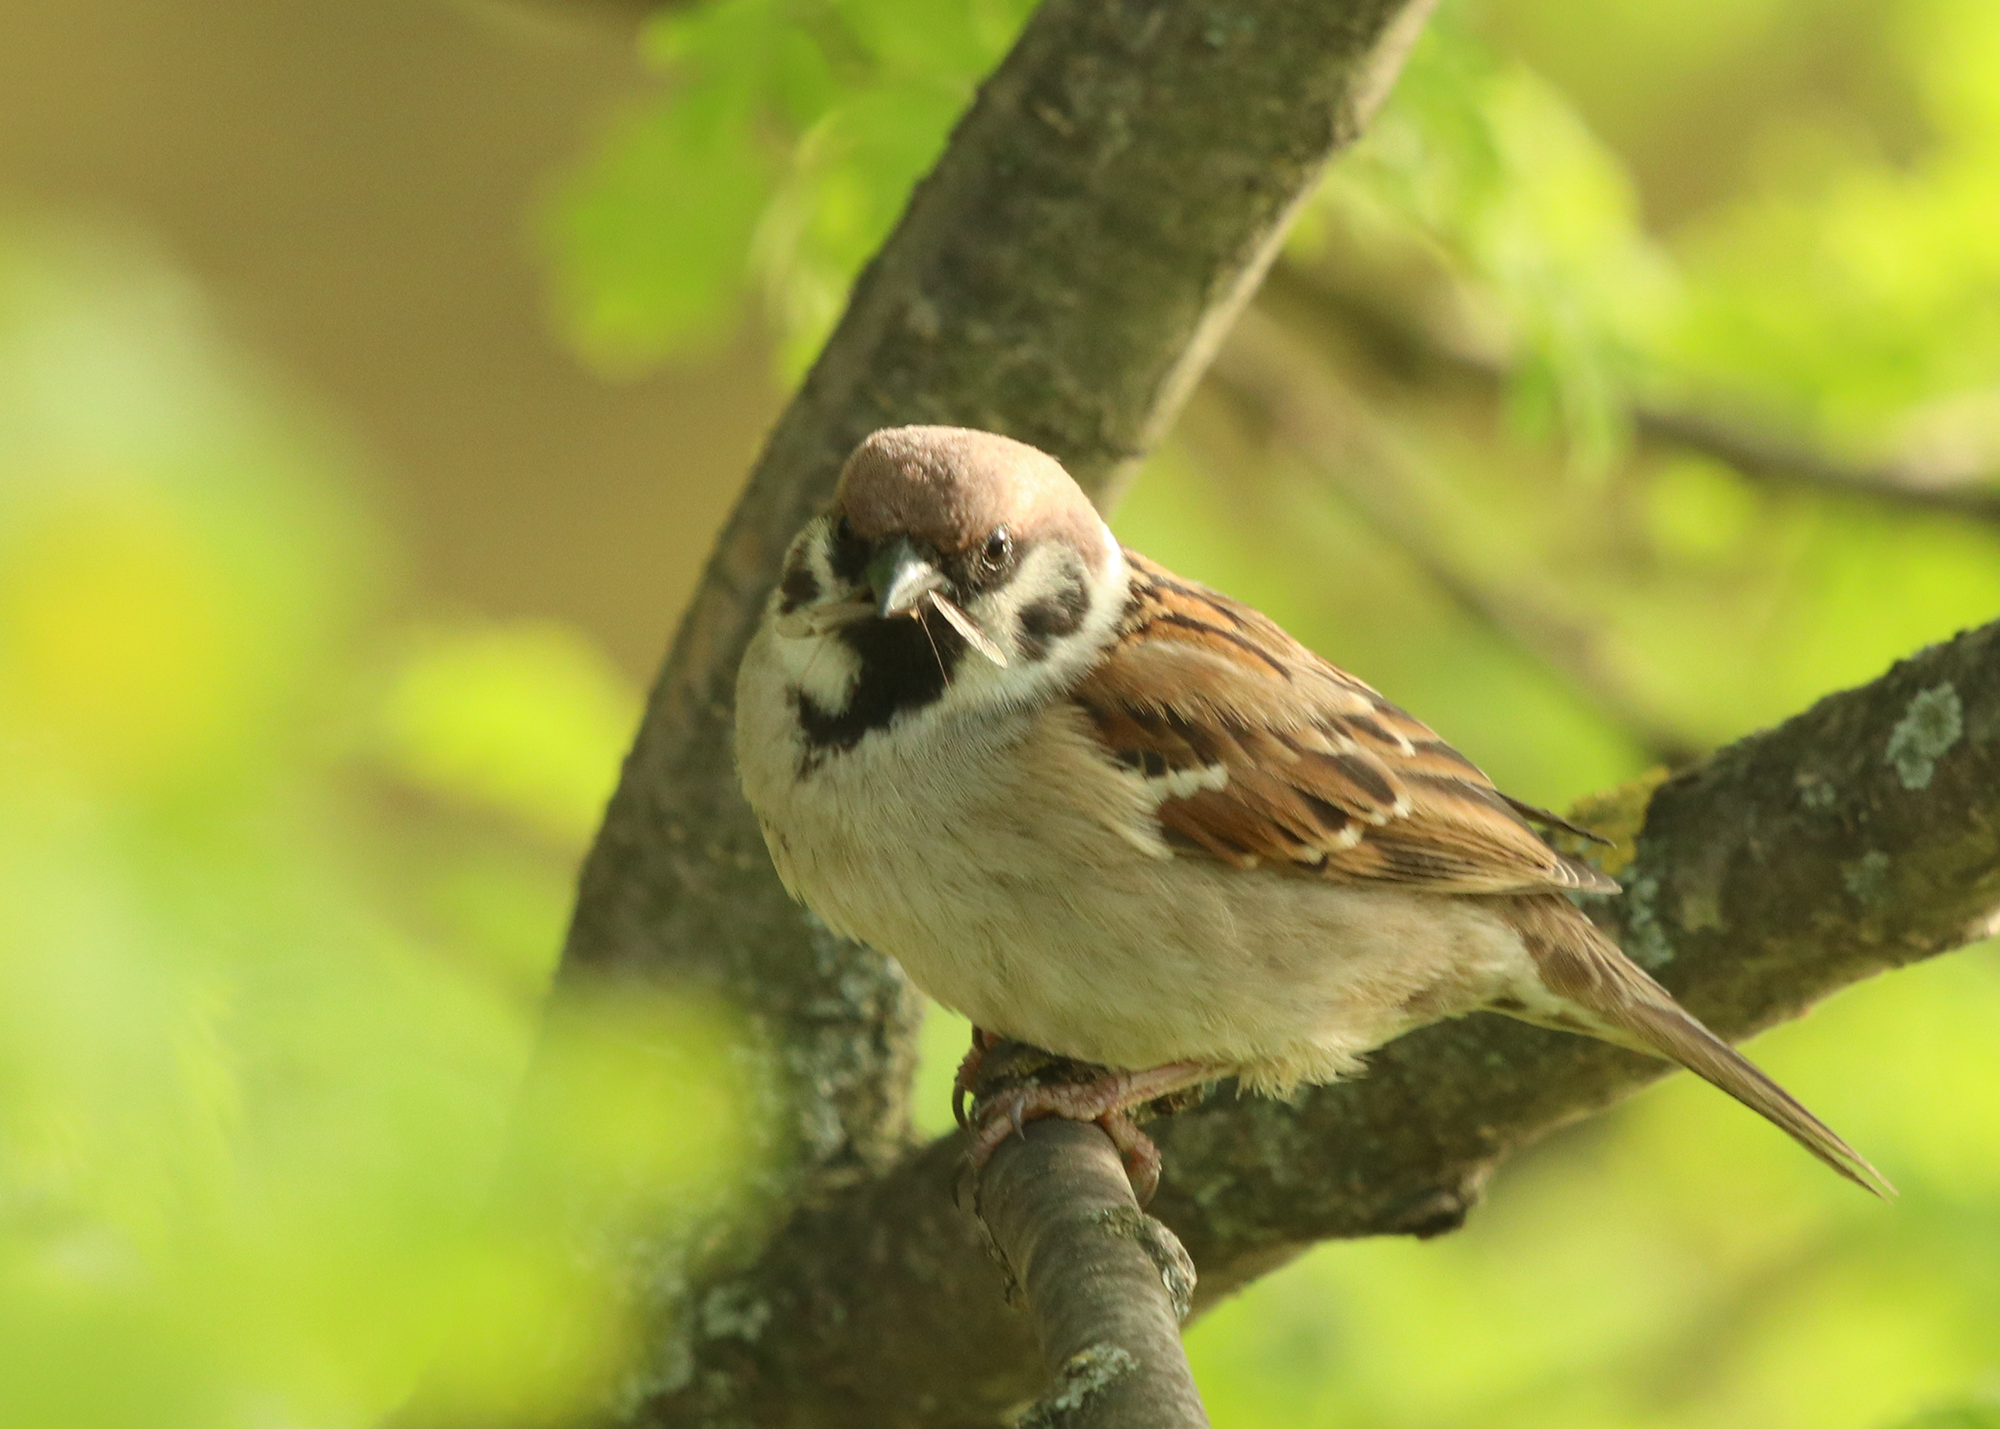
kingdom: Animalia
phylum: Chordata
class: Aves
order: Passeriformes
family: Passeridae
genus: Passer
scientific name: Passer montanus
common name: Eurasian tree sparrow
